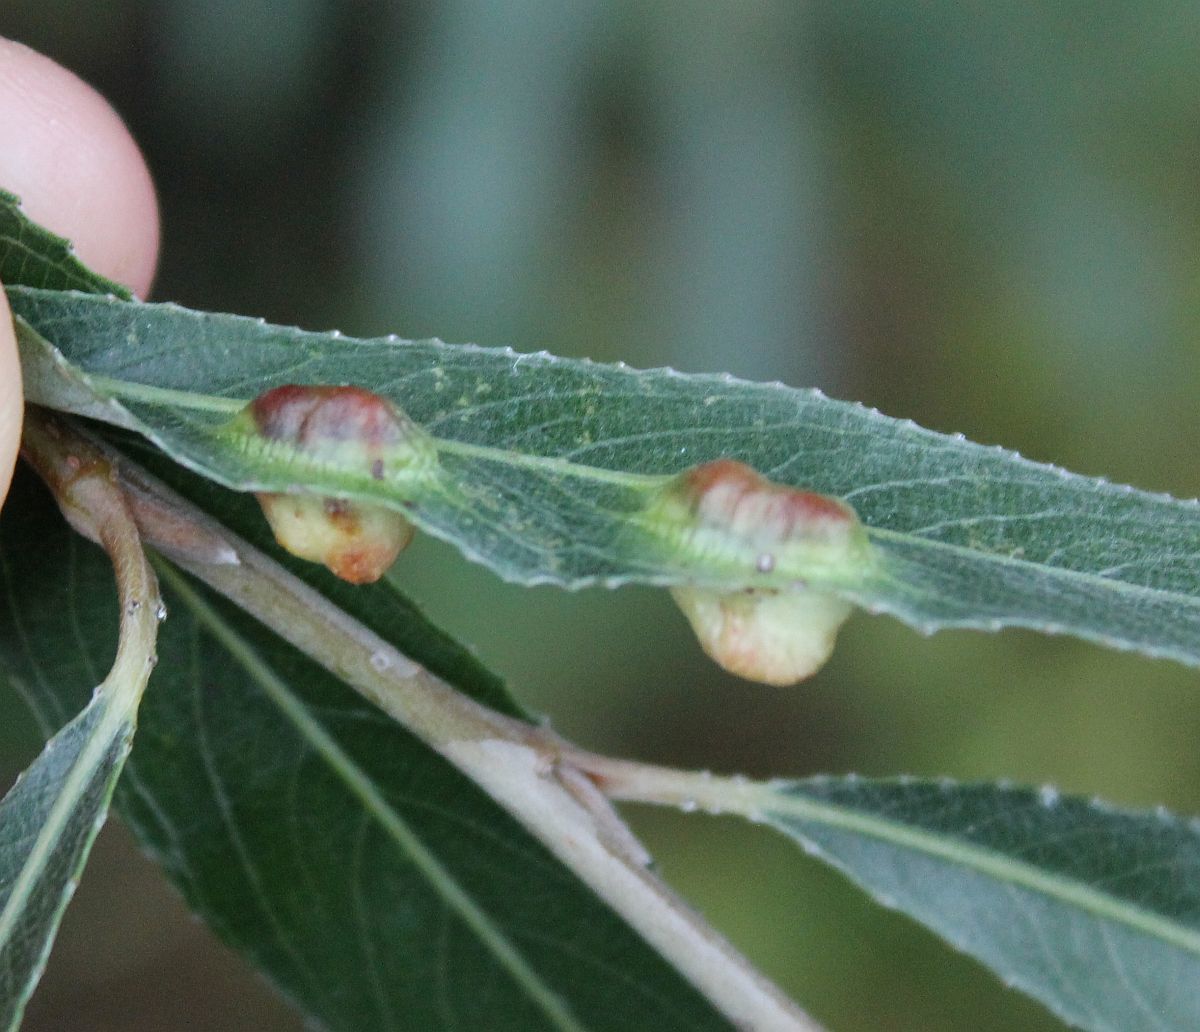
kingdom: Animalia
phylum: Arthropoda
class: Insecta
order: Hymenoptera
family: Tenthredinidae
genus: Pontania
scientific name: Pontania proxima
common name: Common sawfly
